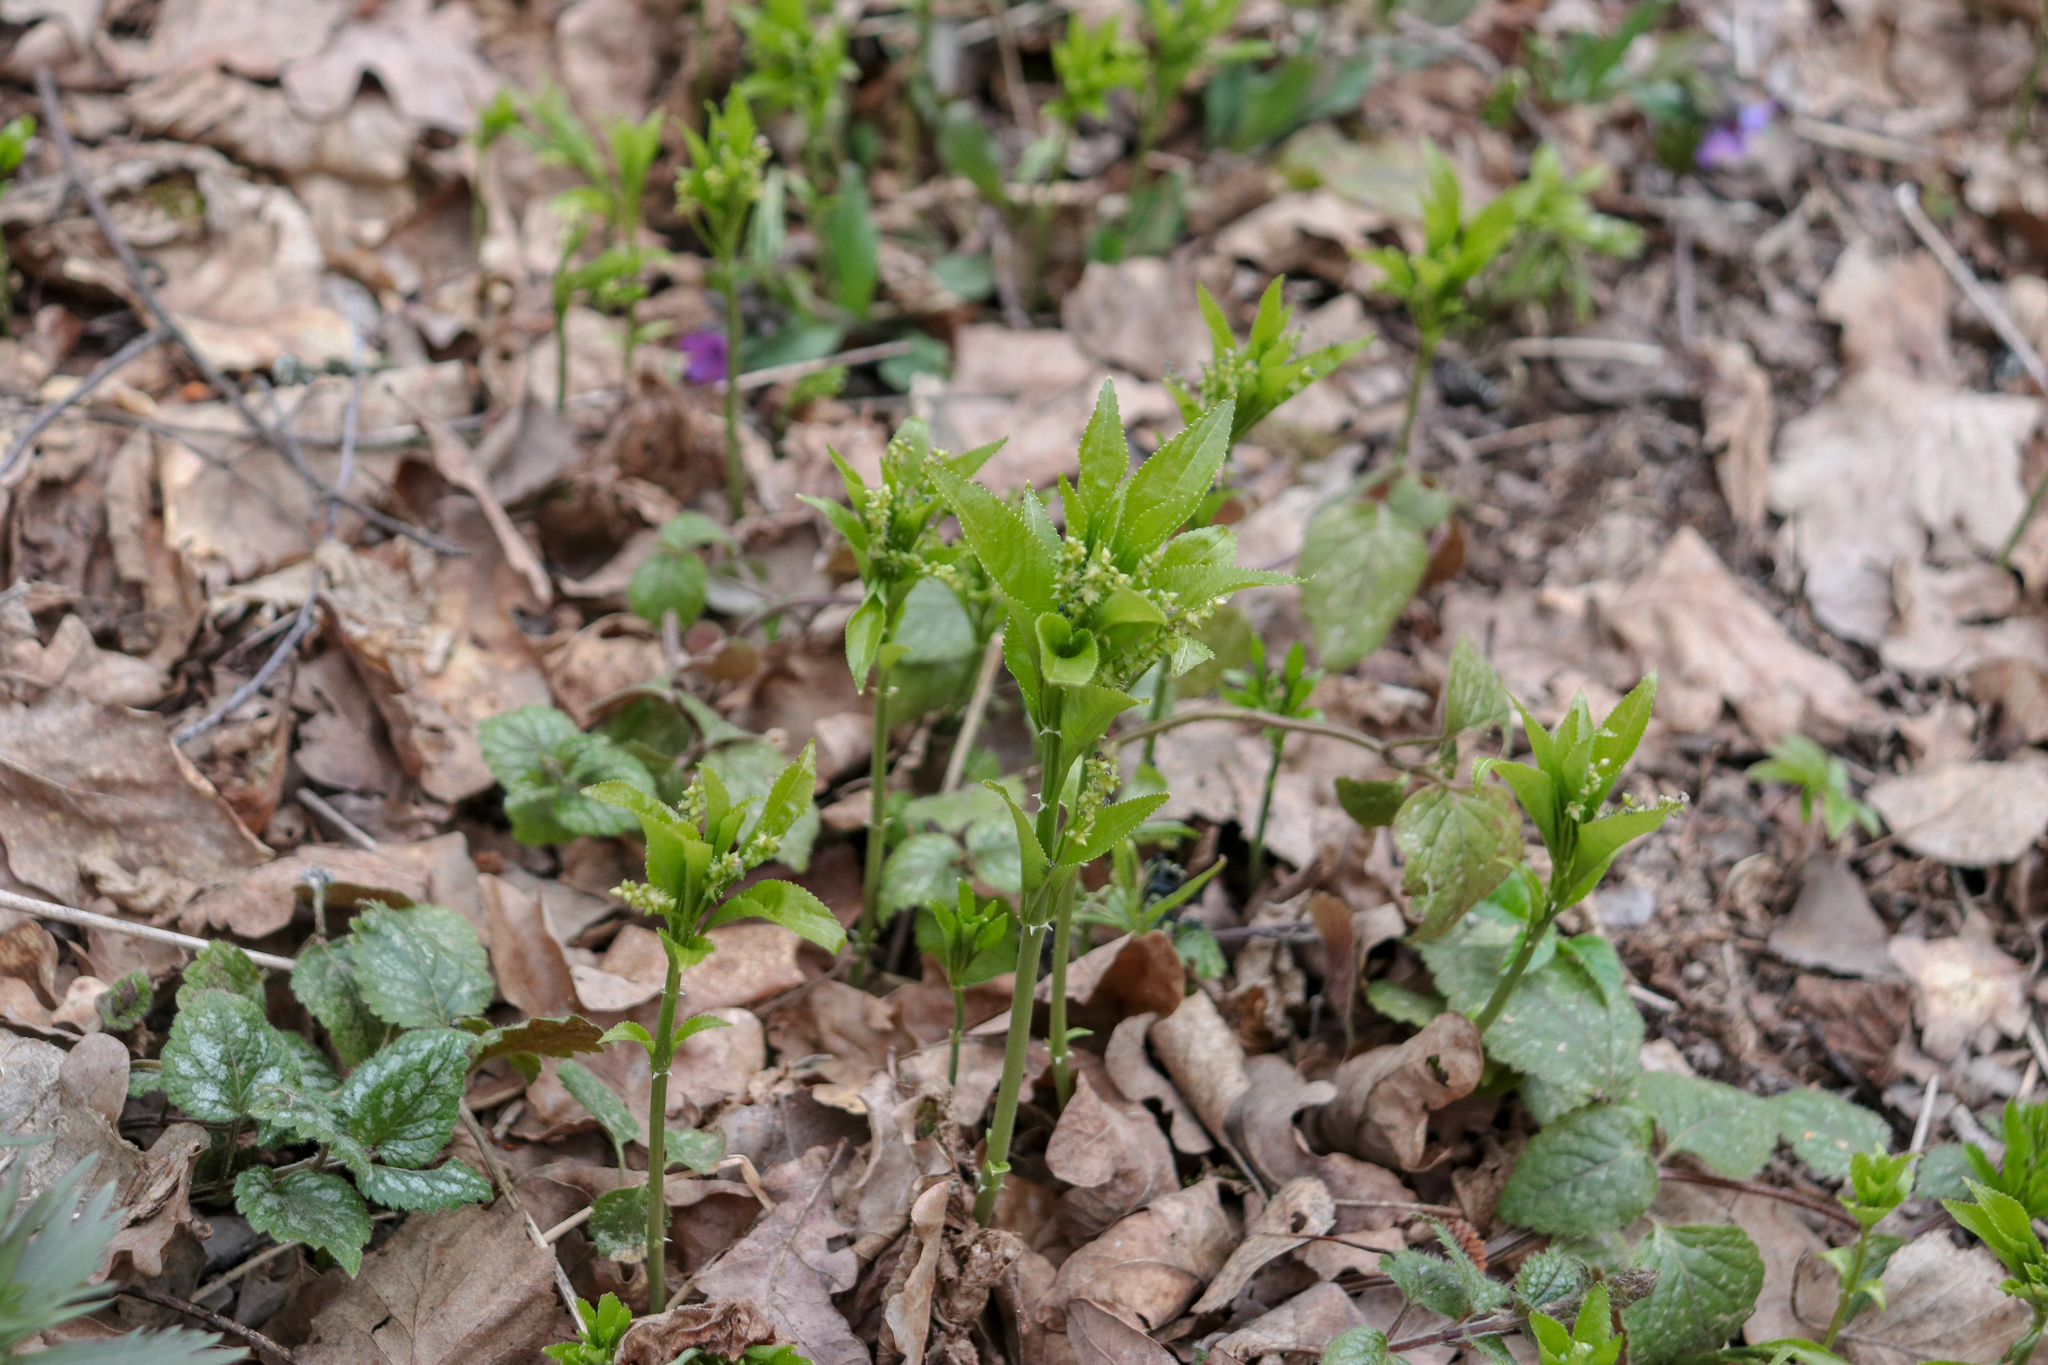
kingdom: Plantae
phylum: Tracheophyta
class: Magnoliopsida
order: Malpighiales
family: Euphorbiaceae
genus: Mercurialis
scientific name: Mercurialis perennis
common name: Dog mercury
